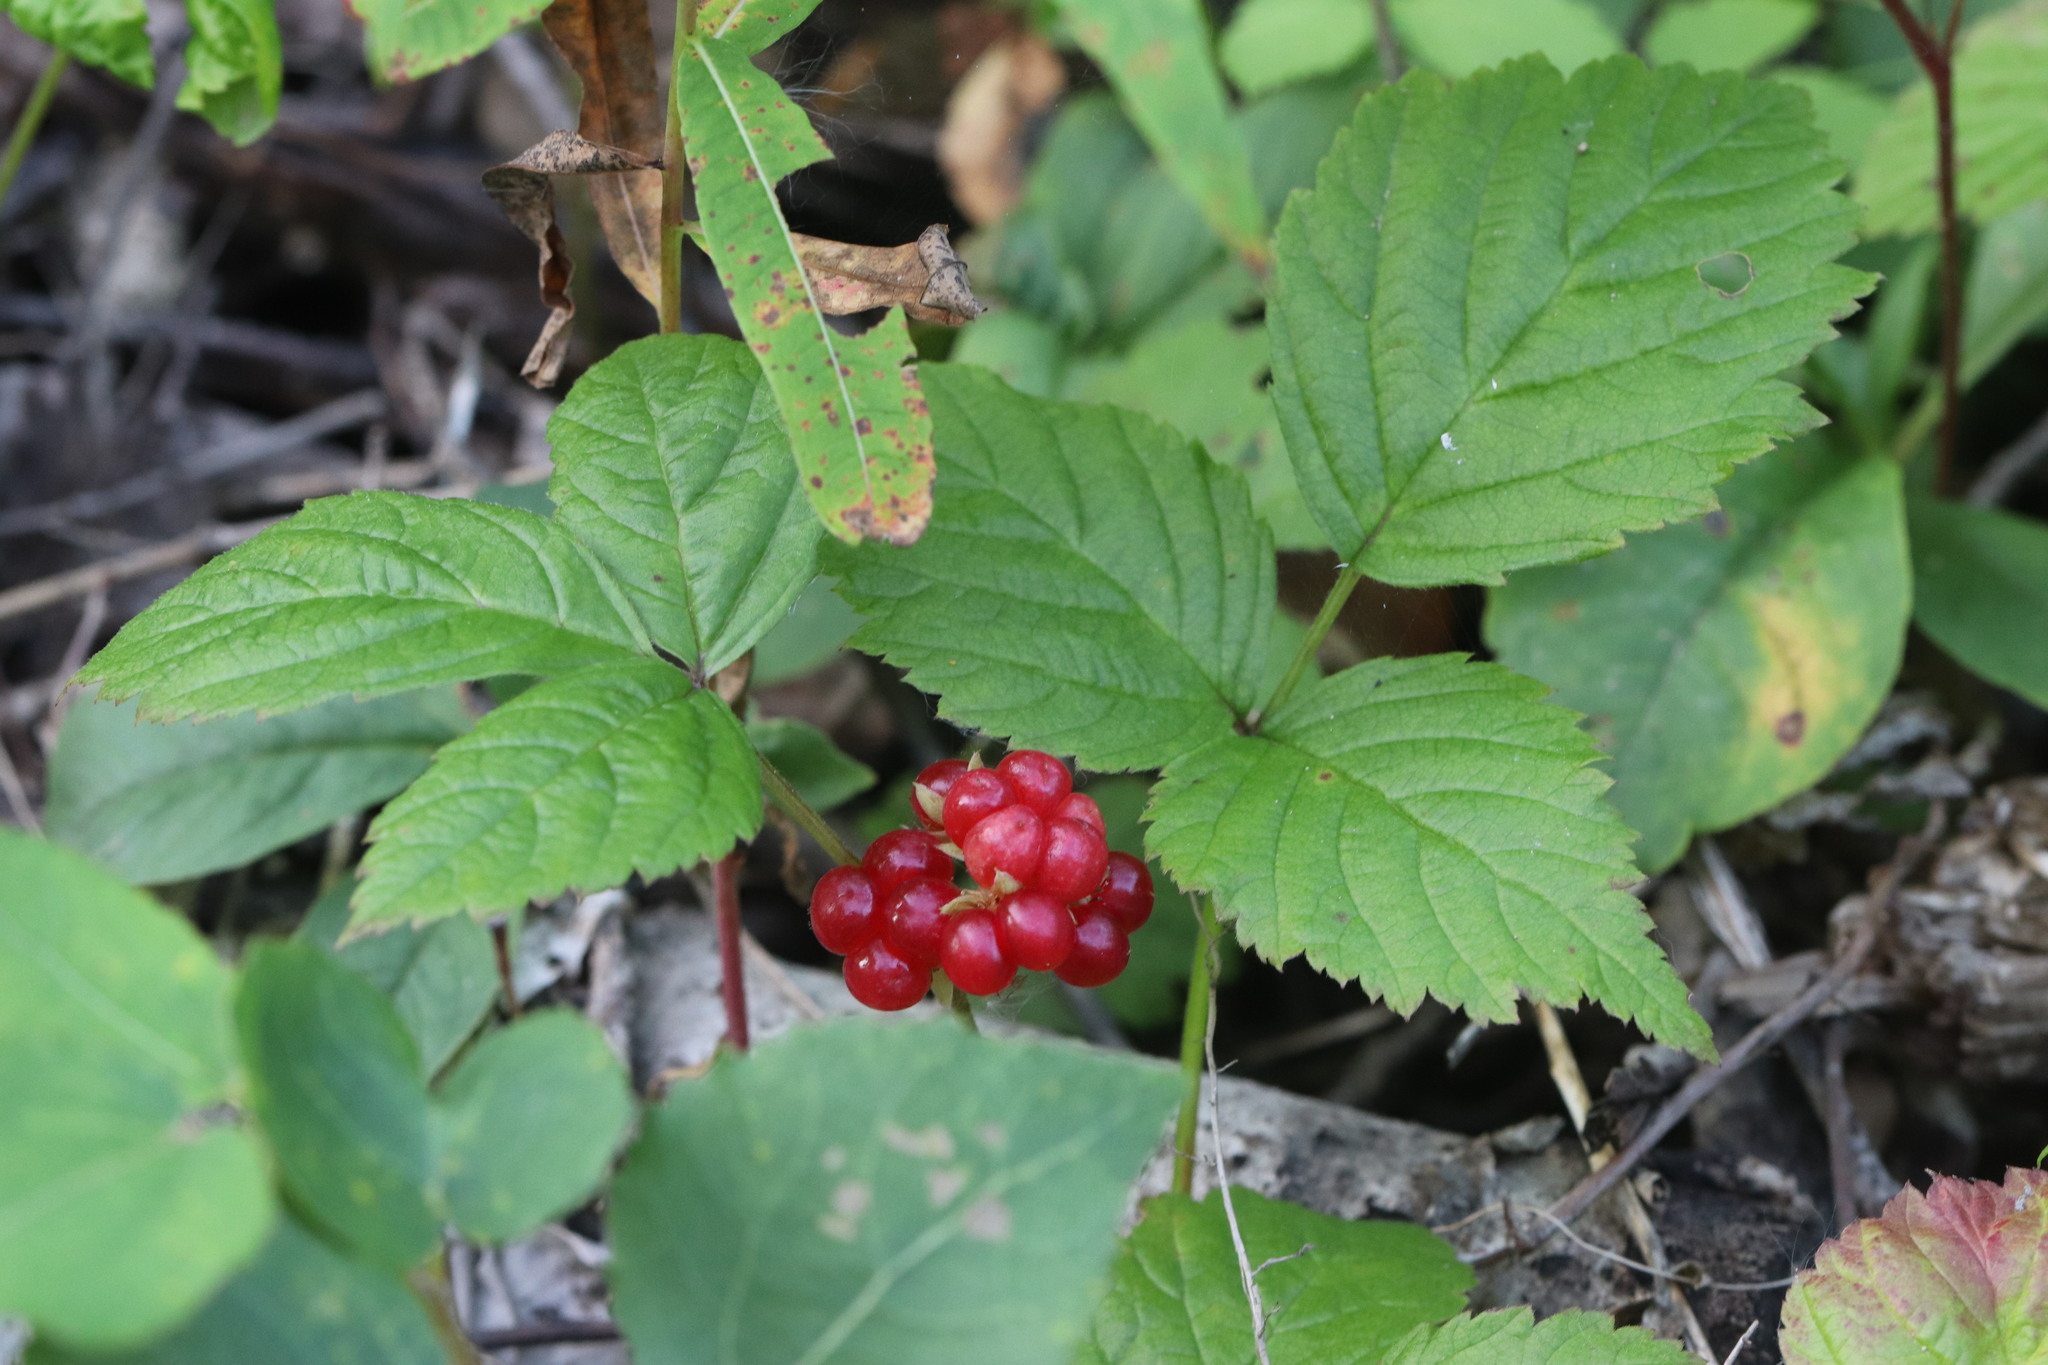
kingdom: Plantae
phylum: Tracheophyta
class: Magnoliopsida
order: Rosales
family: Rosaceae
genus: Rubus
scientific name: Rubus saxatilis
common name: Stone bramble
